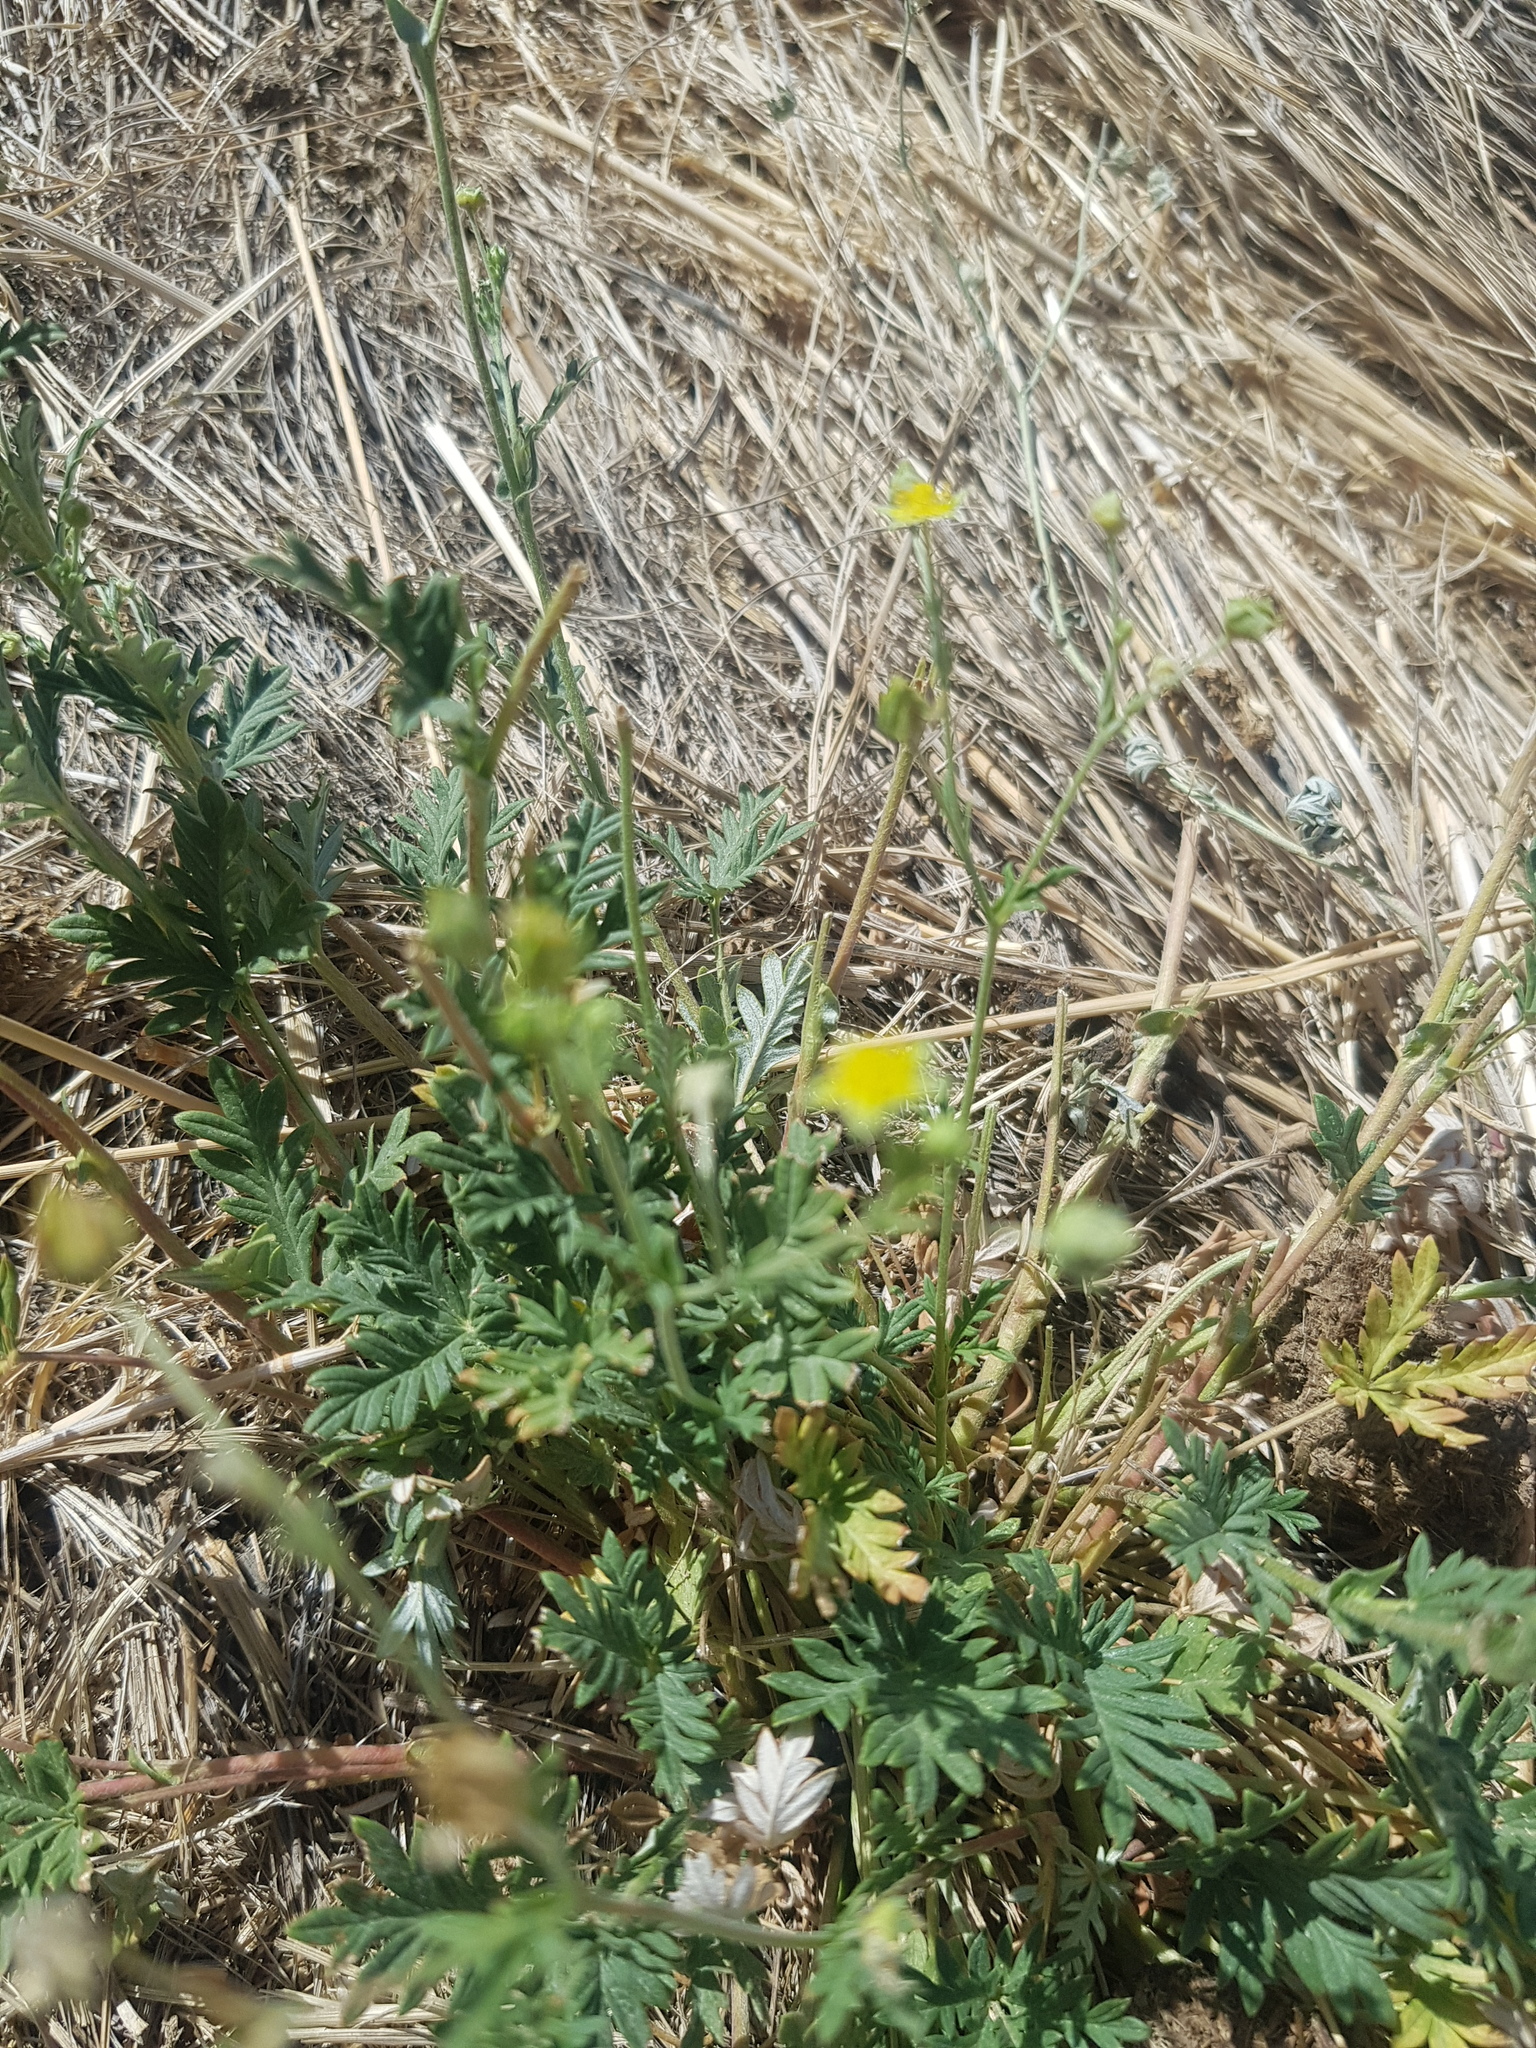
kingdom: Plantae
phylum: Tracheophyta
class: Magnoliopsida
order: Rosales
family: Rosaceae
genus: Potentilla
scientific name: Potentilla virgata
